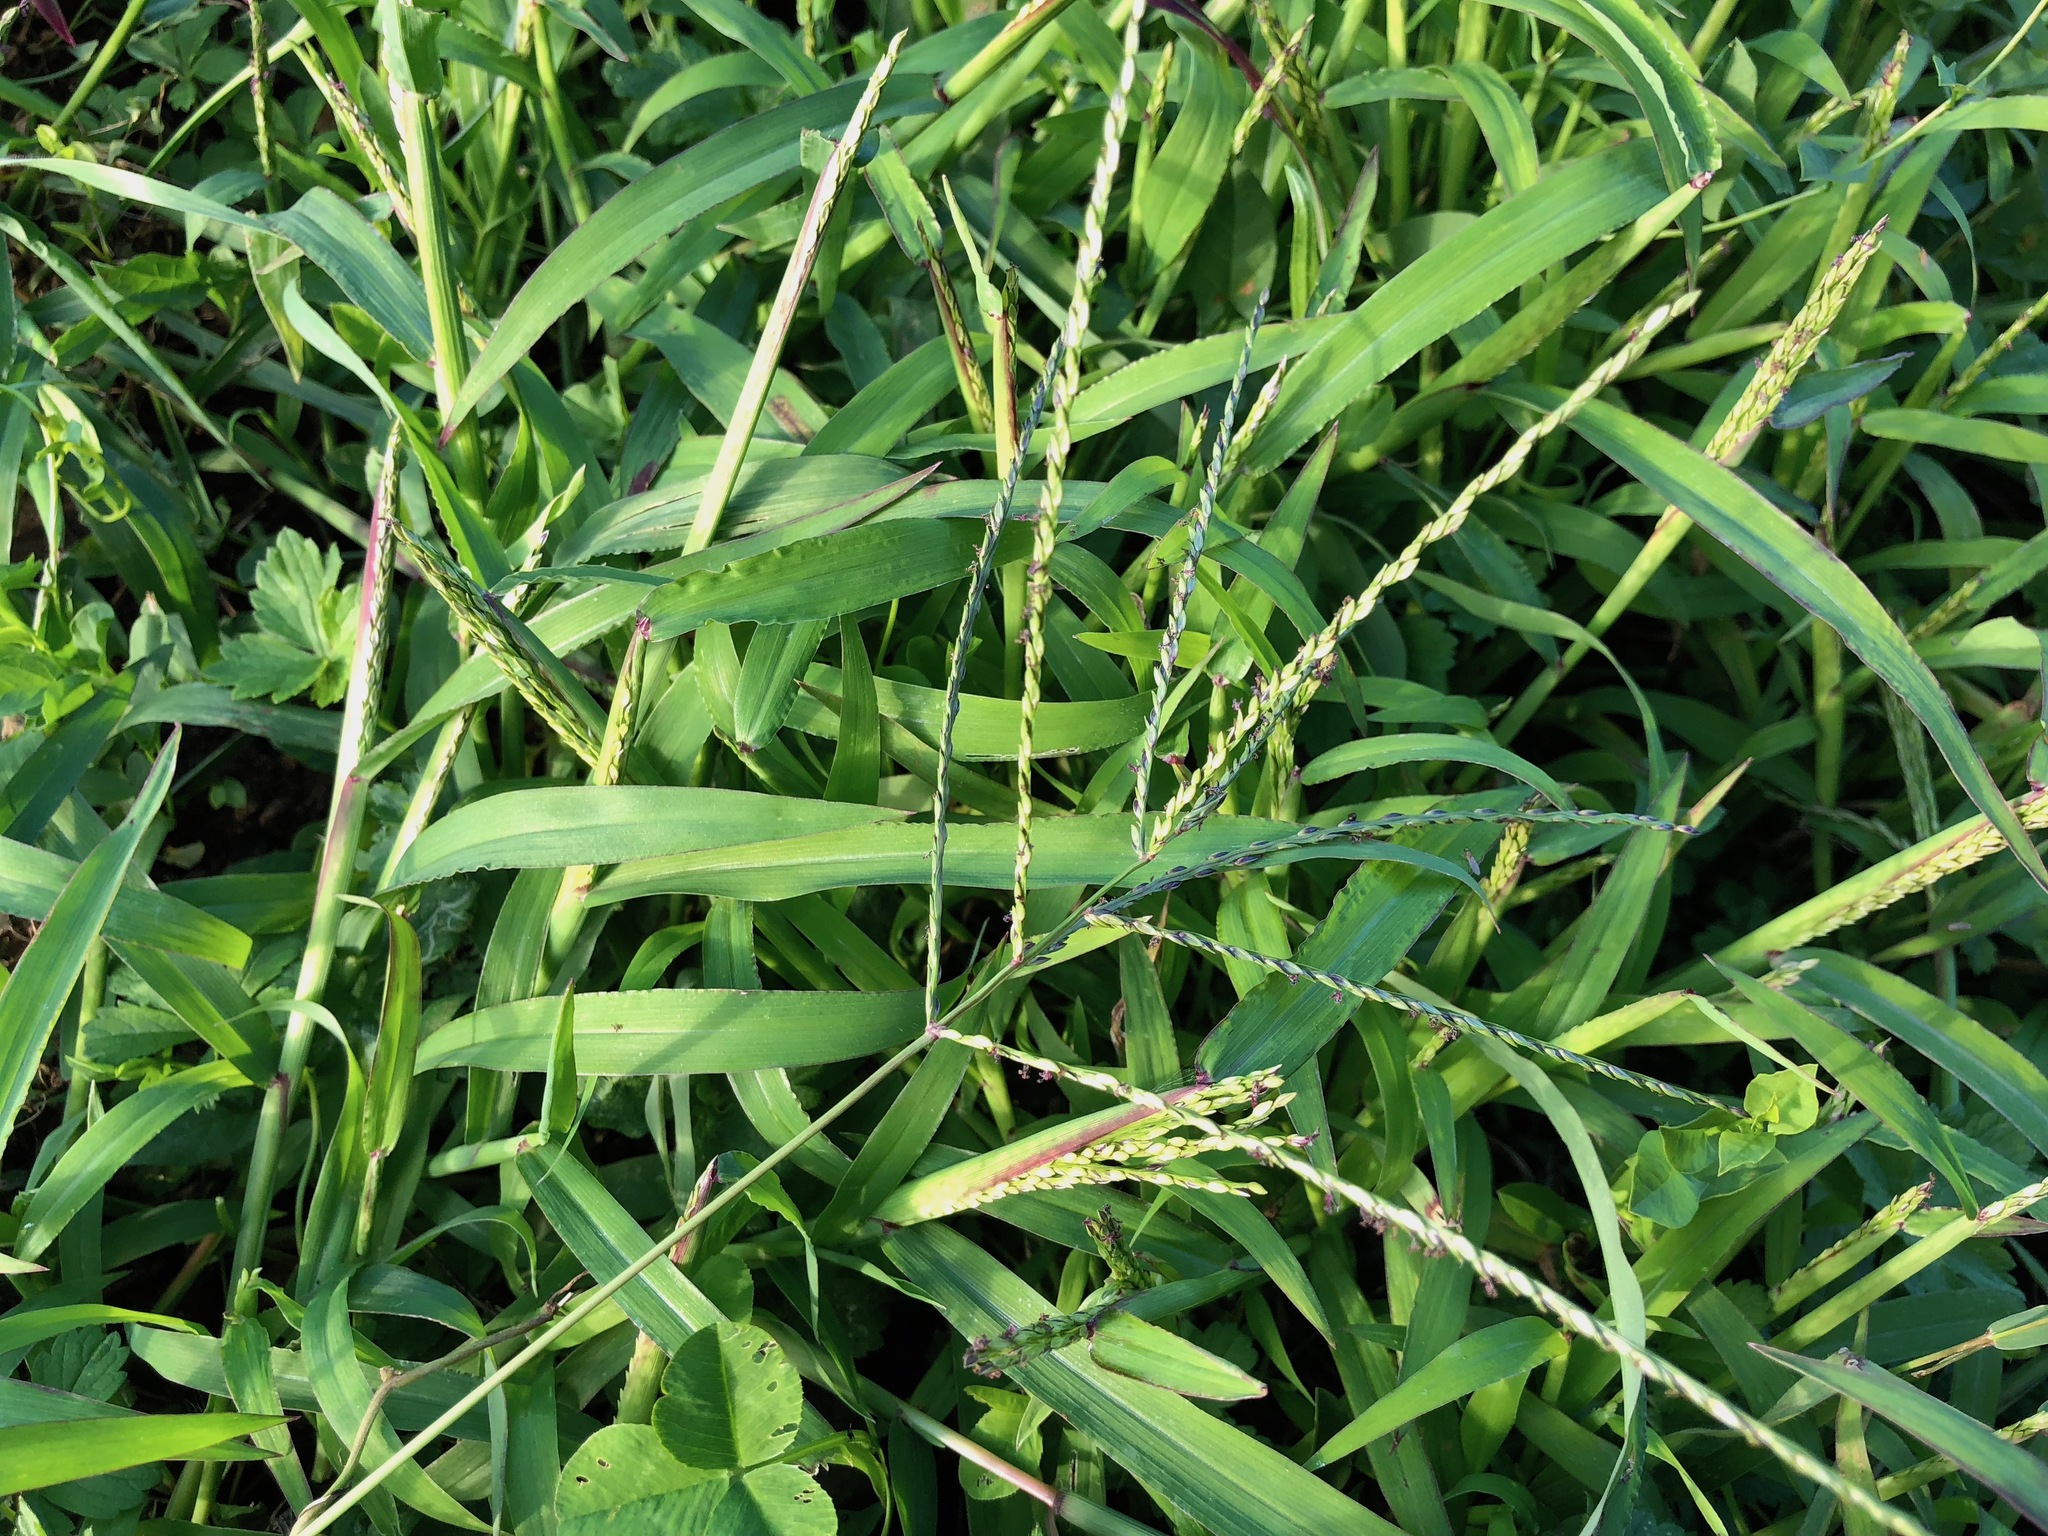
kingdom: Plantae
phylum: Tracheophyta
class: Liliopsida
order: Poales
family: Poaceae
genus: Digitaria
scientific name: Digitaria ischaemum
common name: Smooth crabgrass
